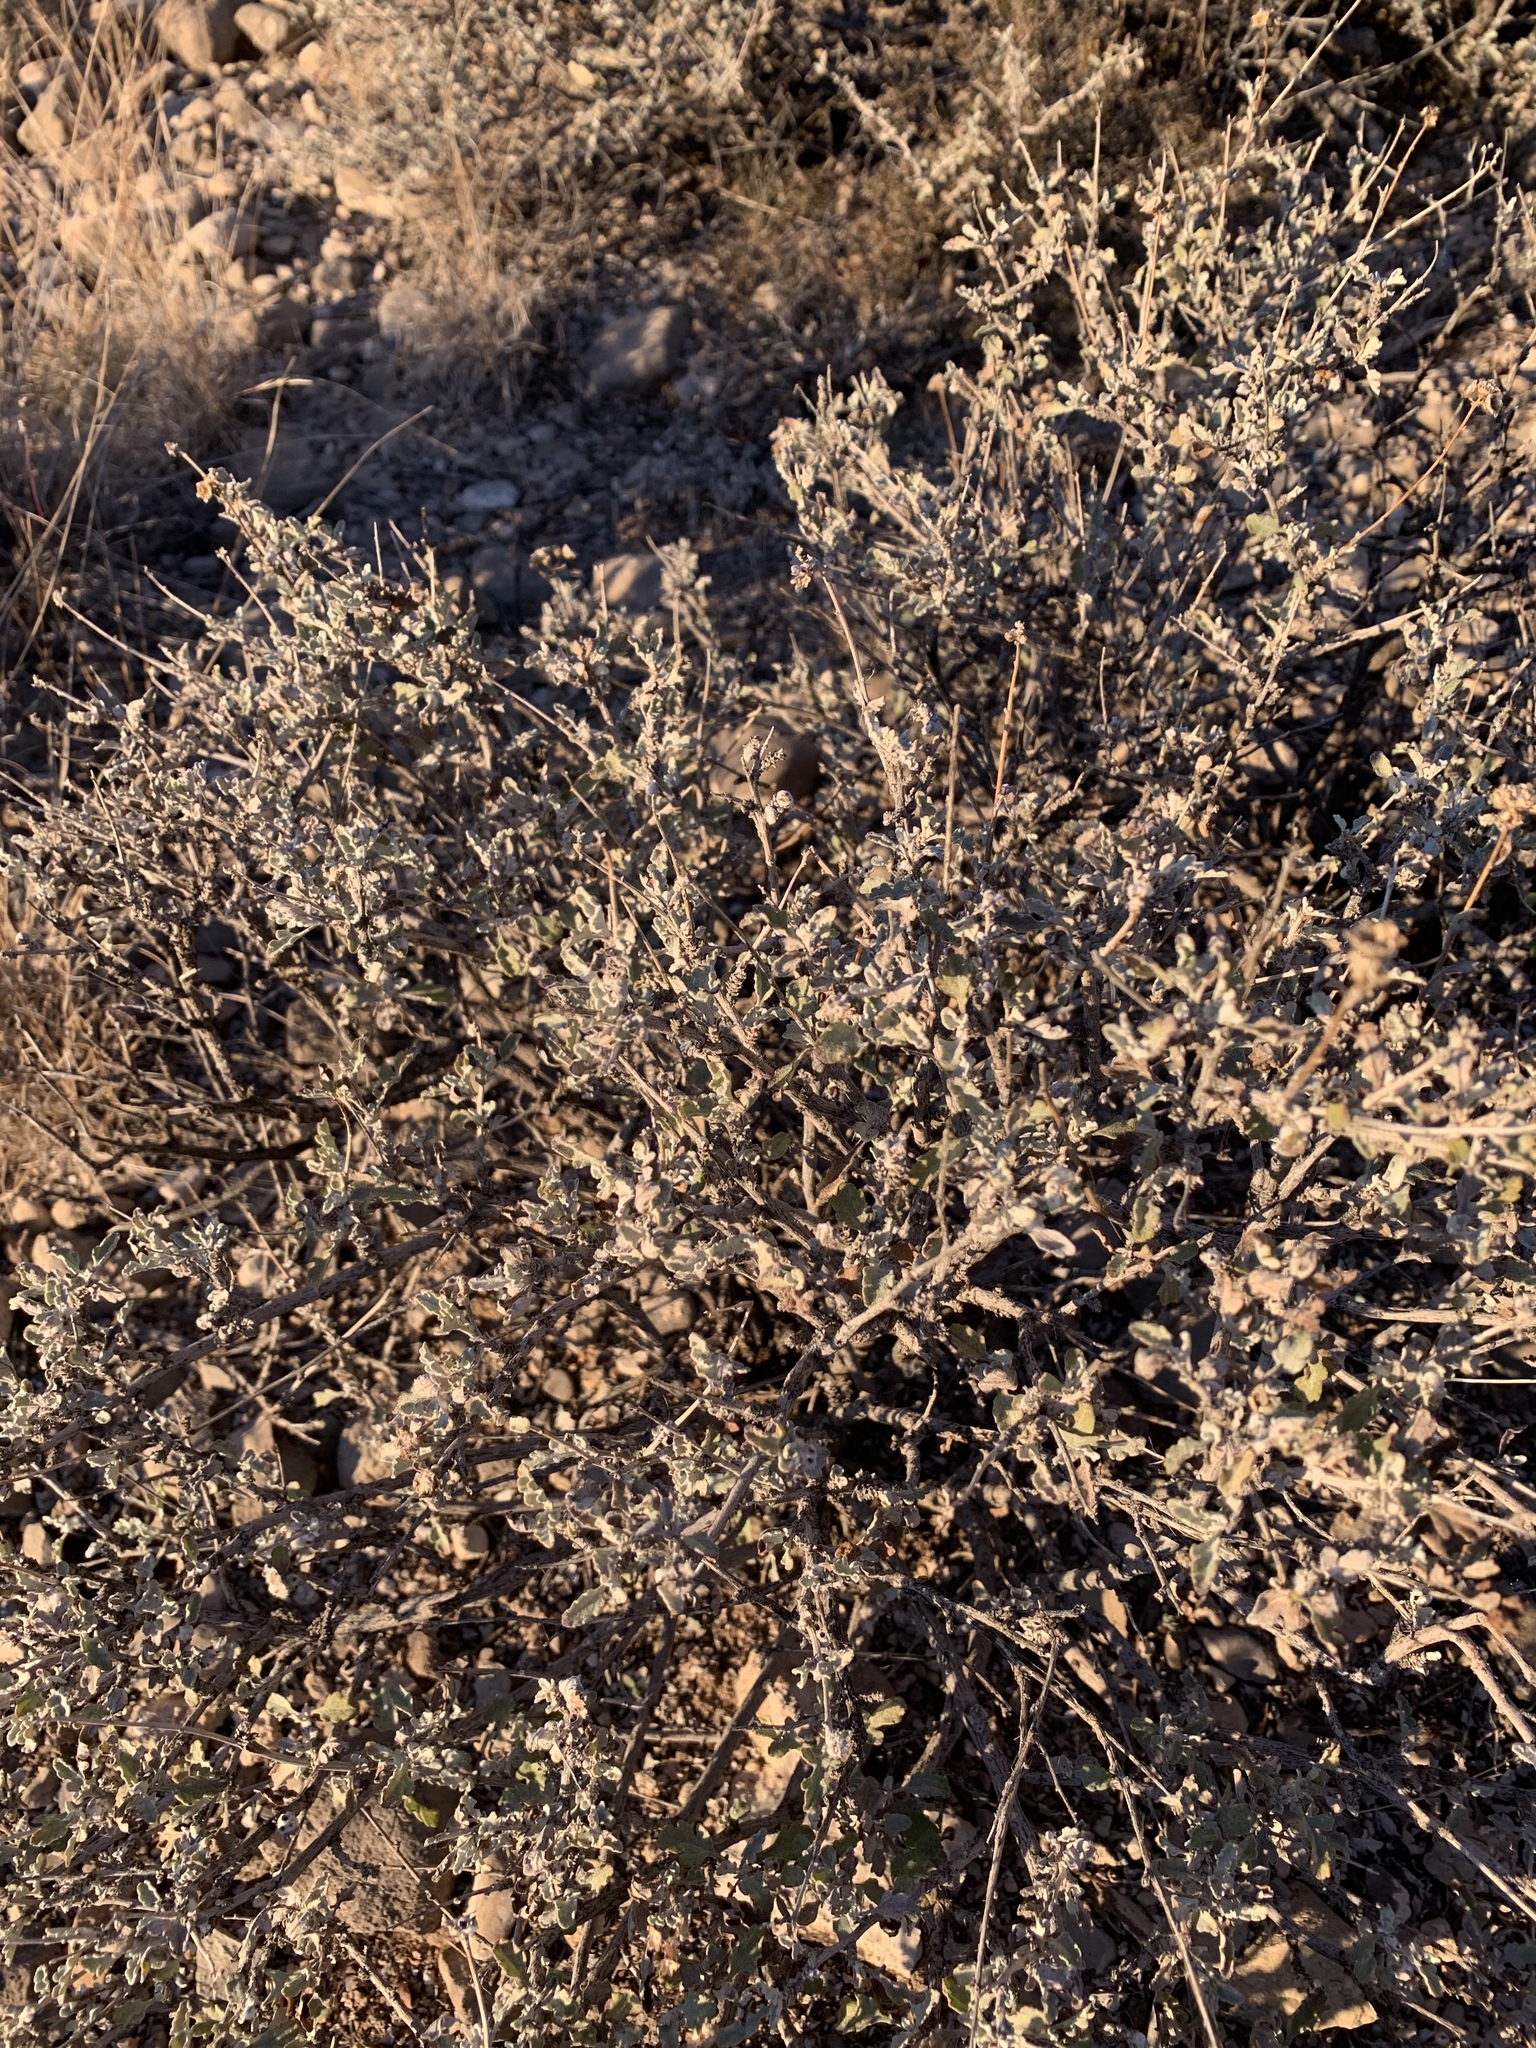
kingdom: Plantae
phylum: Tracheophyta
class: Magnoliopsida
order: Asterales
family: Asteraceae
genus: Parthenium
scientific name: Parthenium incanum
